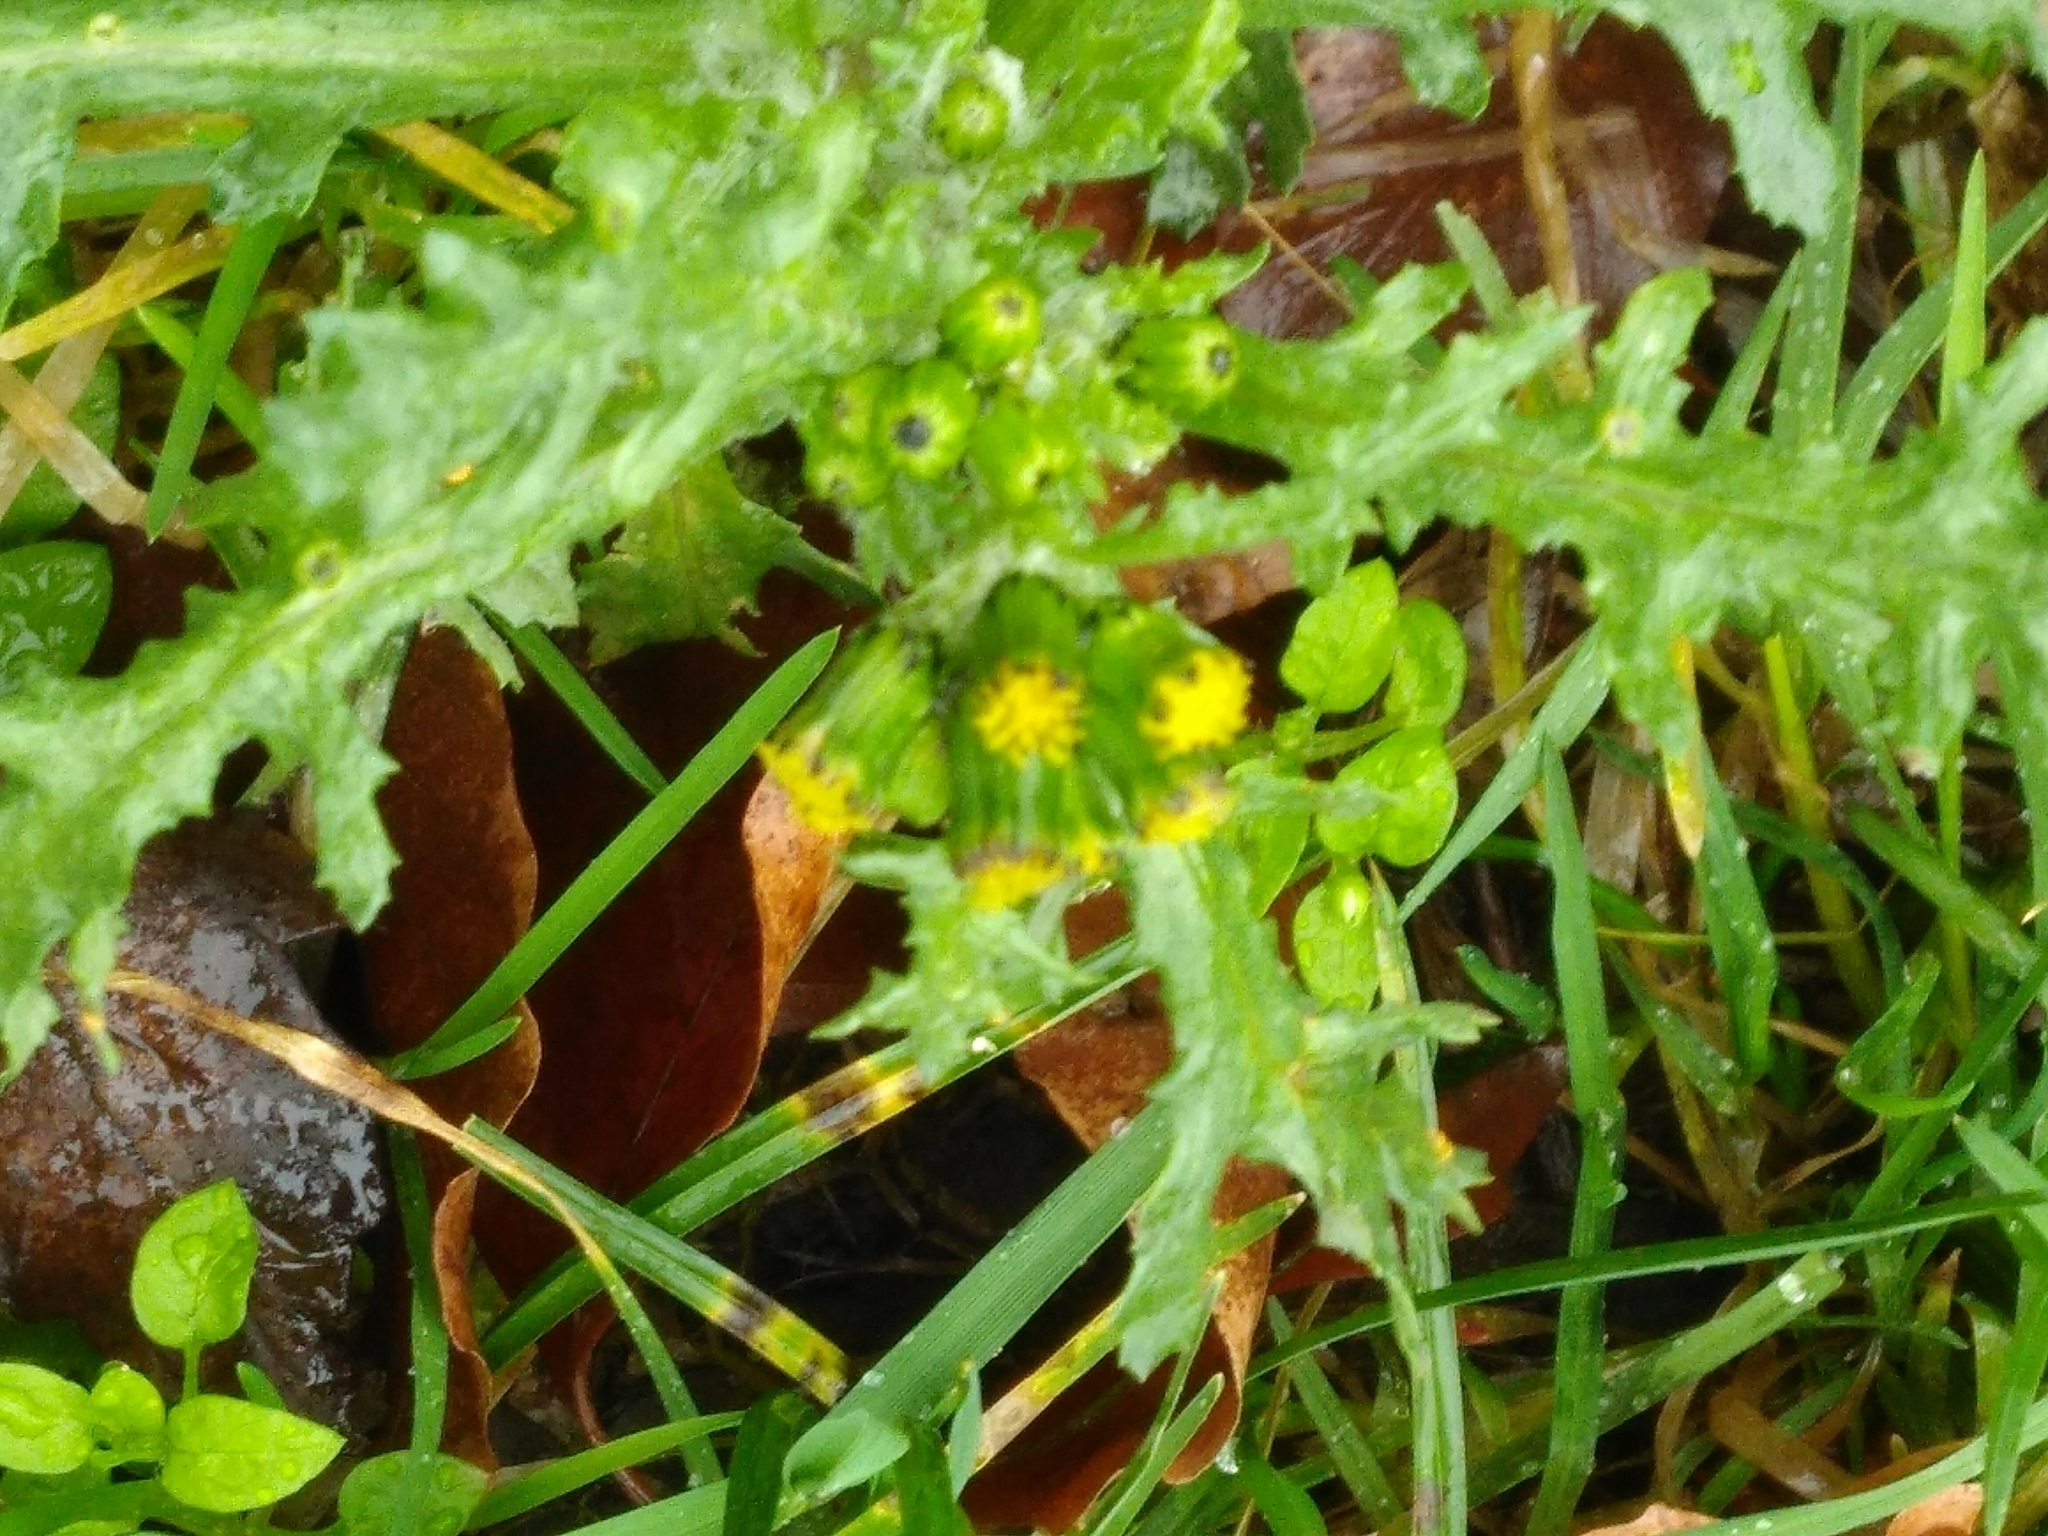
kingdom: Plantae
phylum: Tracheophyta
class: Magnoliopsida
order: Asterales
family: Asteraceae
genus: Senecio
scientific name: Senecio vulgaris
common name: Old-man-in-the-spring
